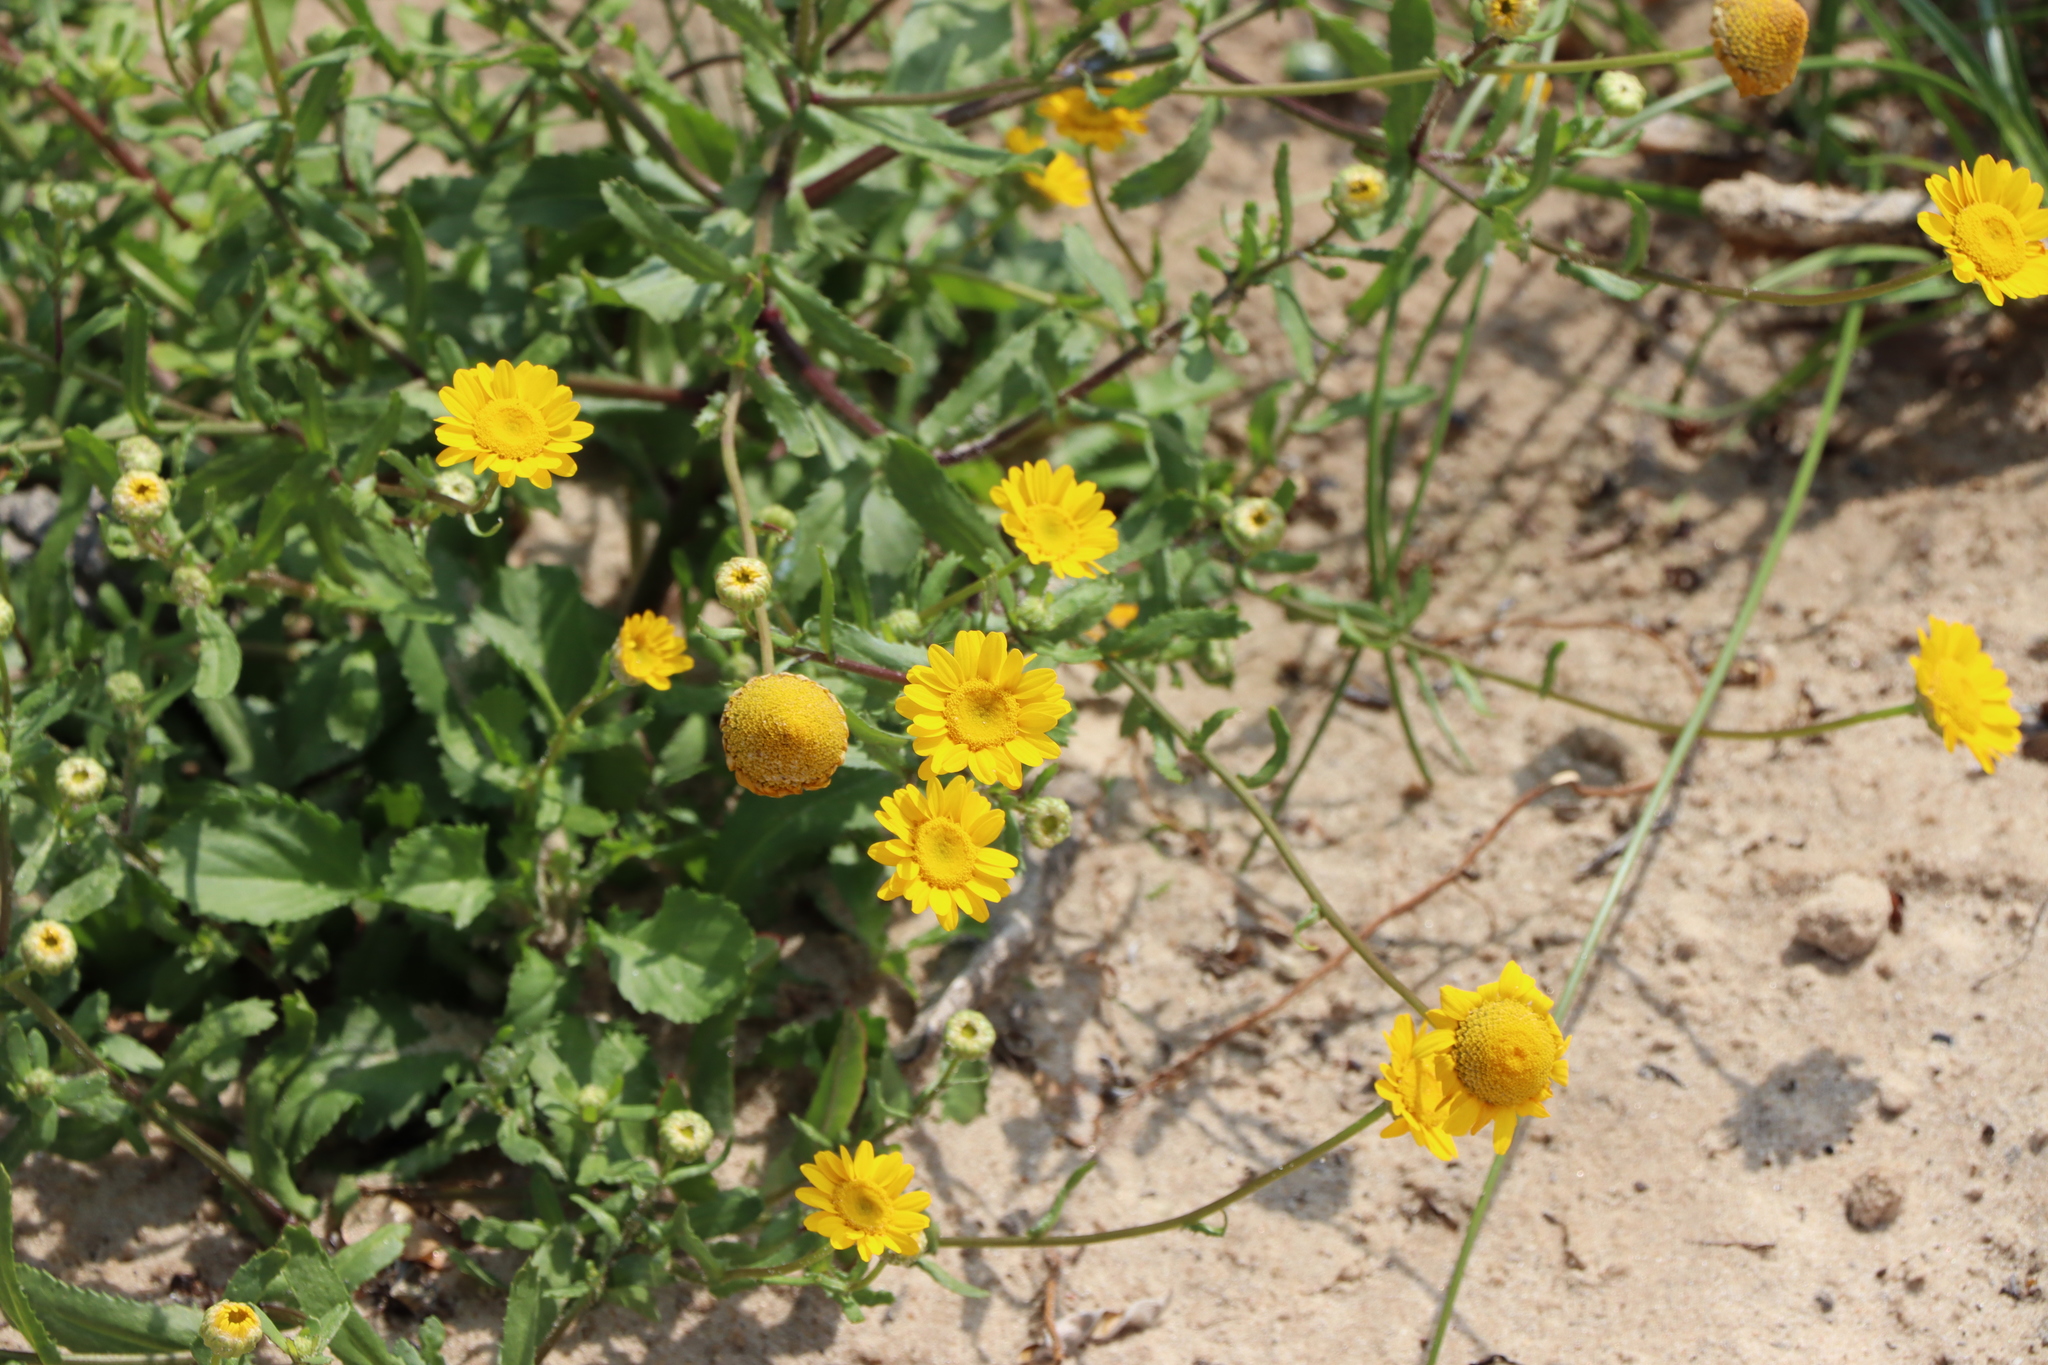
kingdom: Plantae
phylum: Tracheophyta
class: Magnoliopsida
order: Asterales
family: Asteraceae
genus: Coleostephus
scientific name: Coleostephus myconis
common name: Mediterranean marigold
